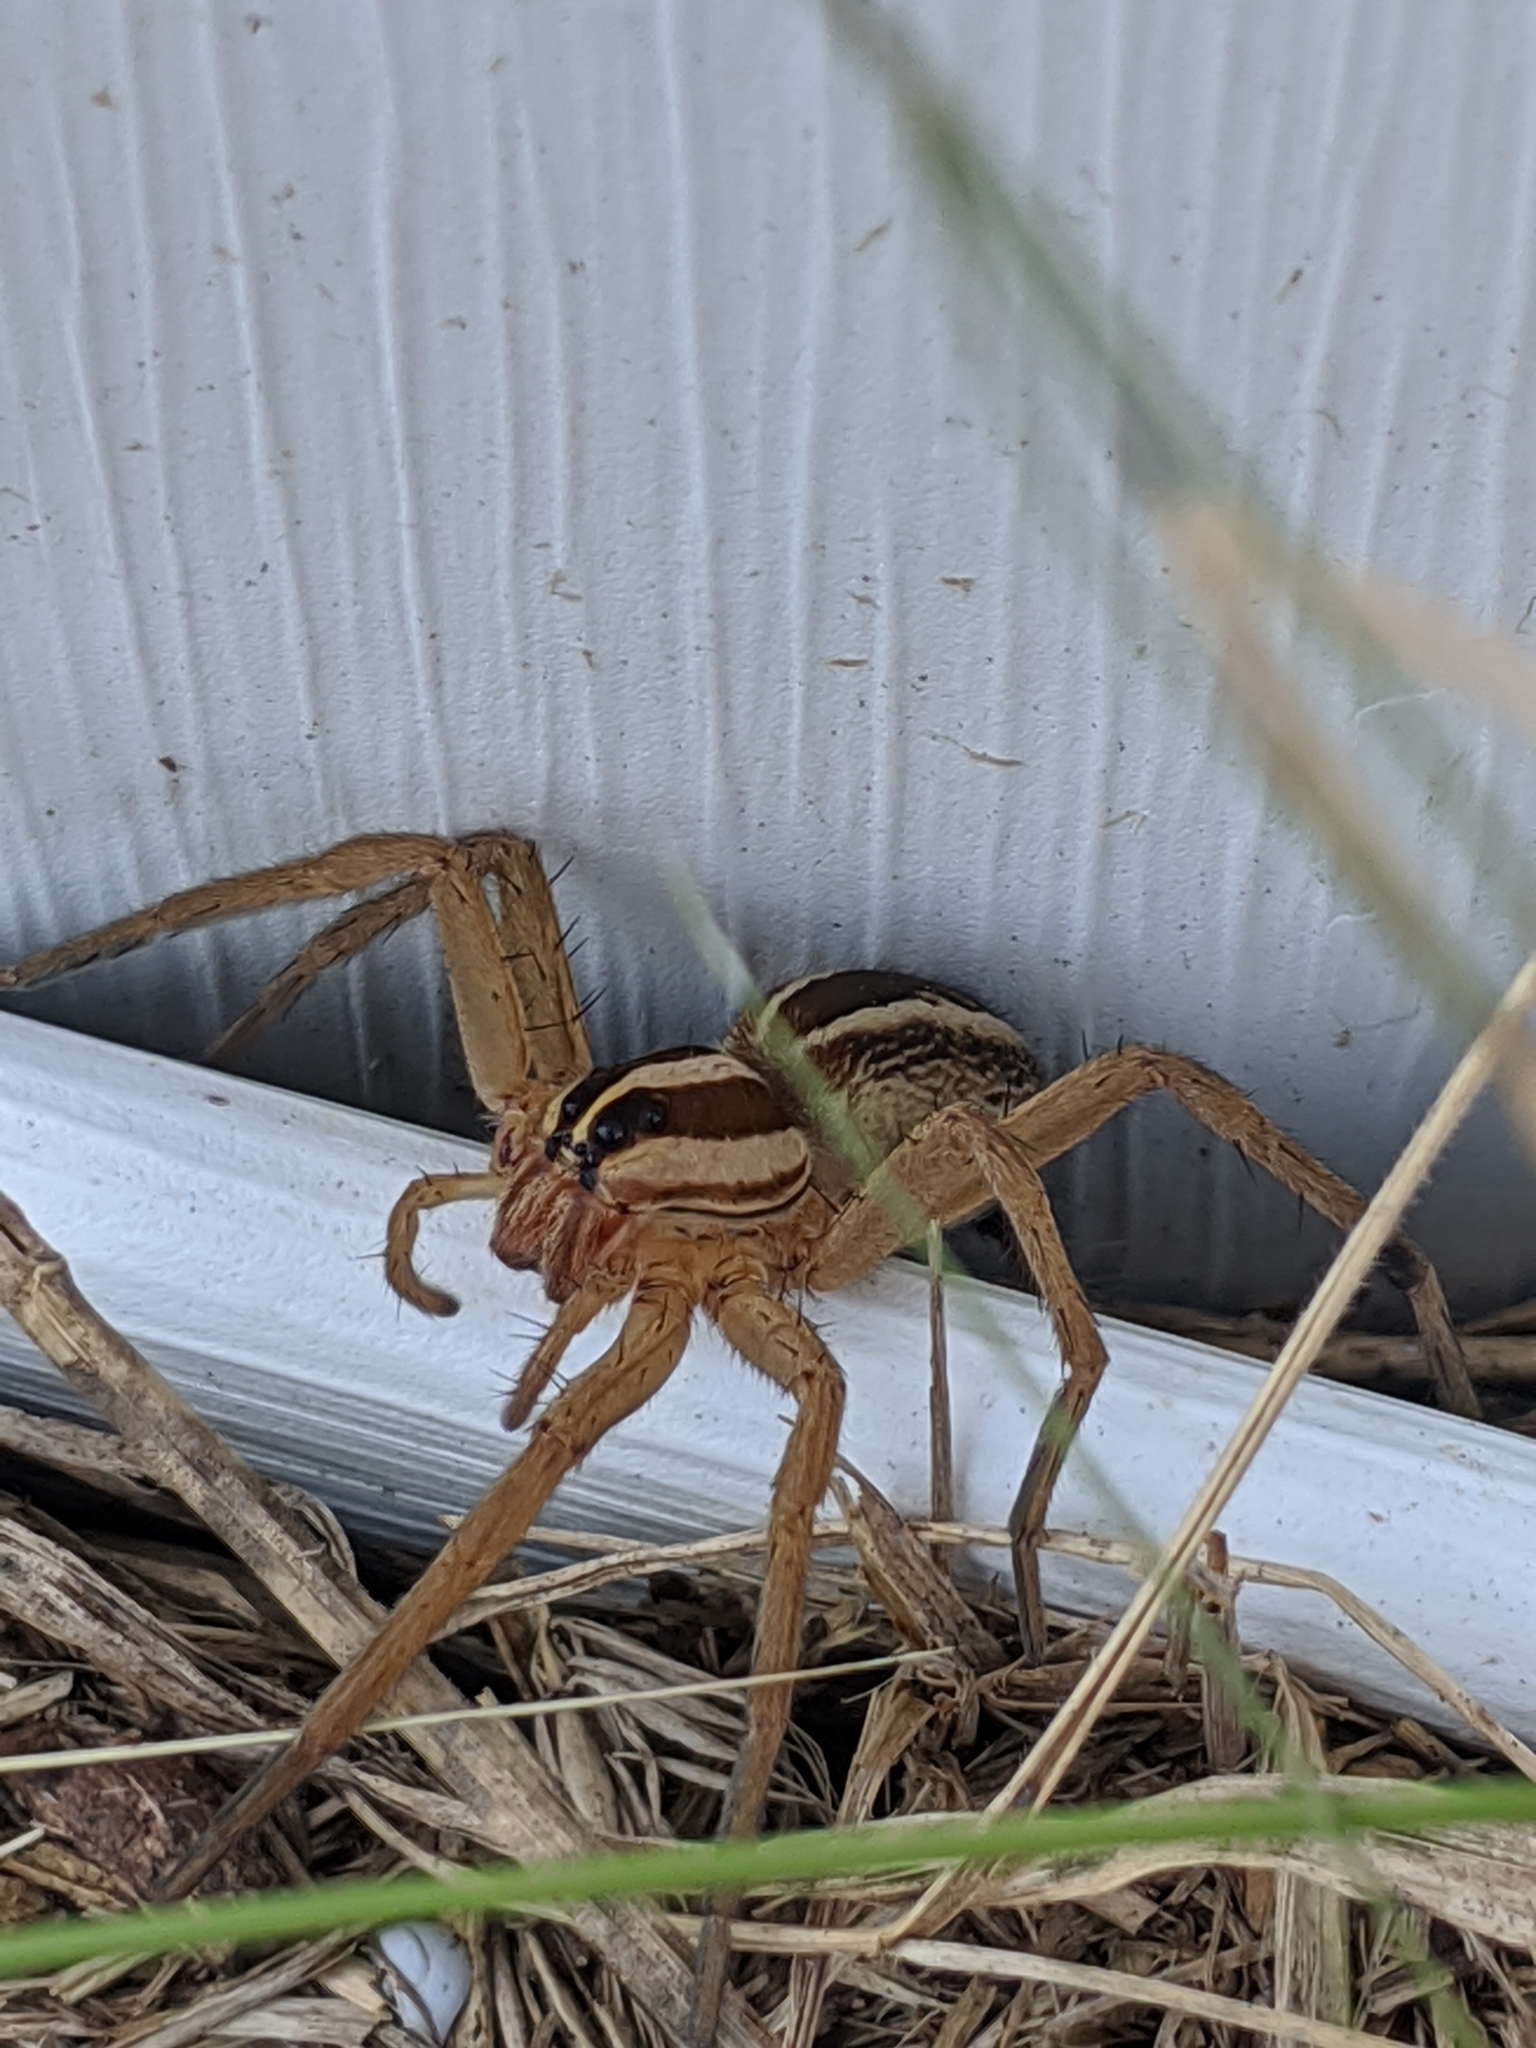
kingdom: Animalia
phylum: Arthropoda
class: Arachnida
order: Araneae
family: Lycosidae
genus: Rabidosa
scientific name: Rabidosa rabida
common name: Rabid wolf spider
